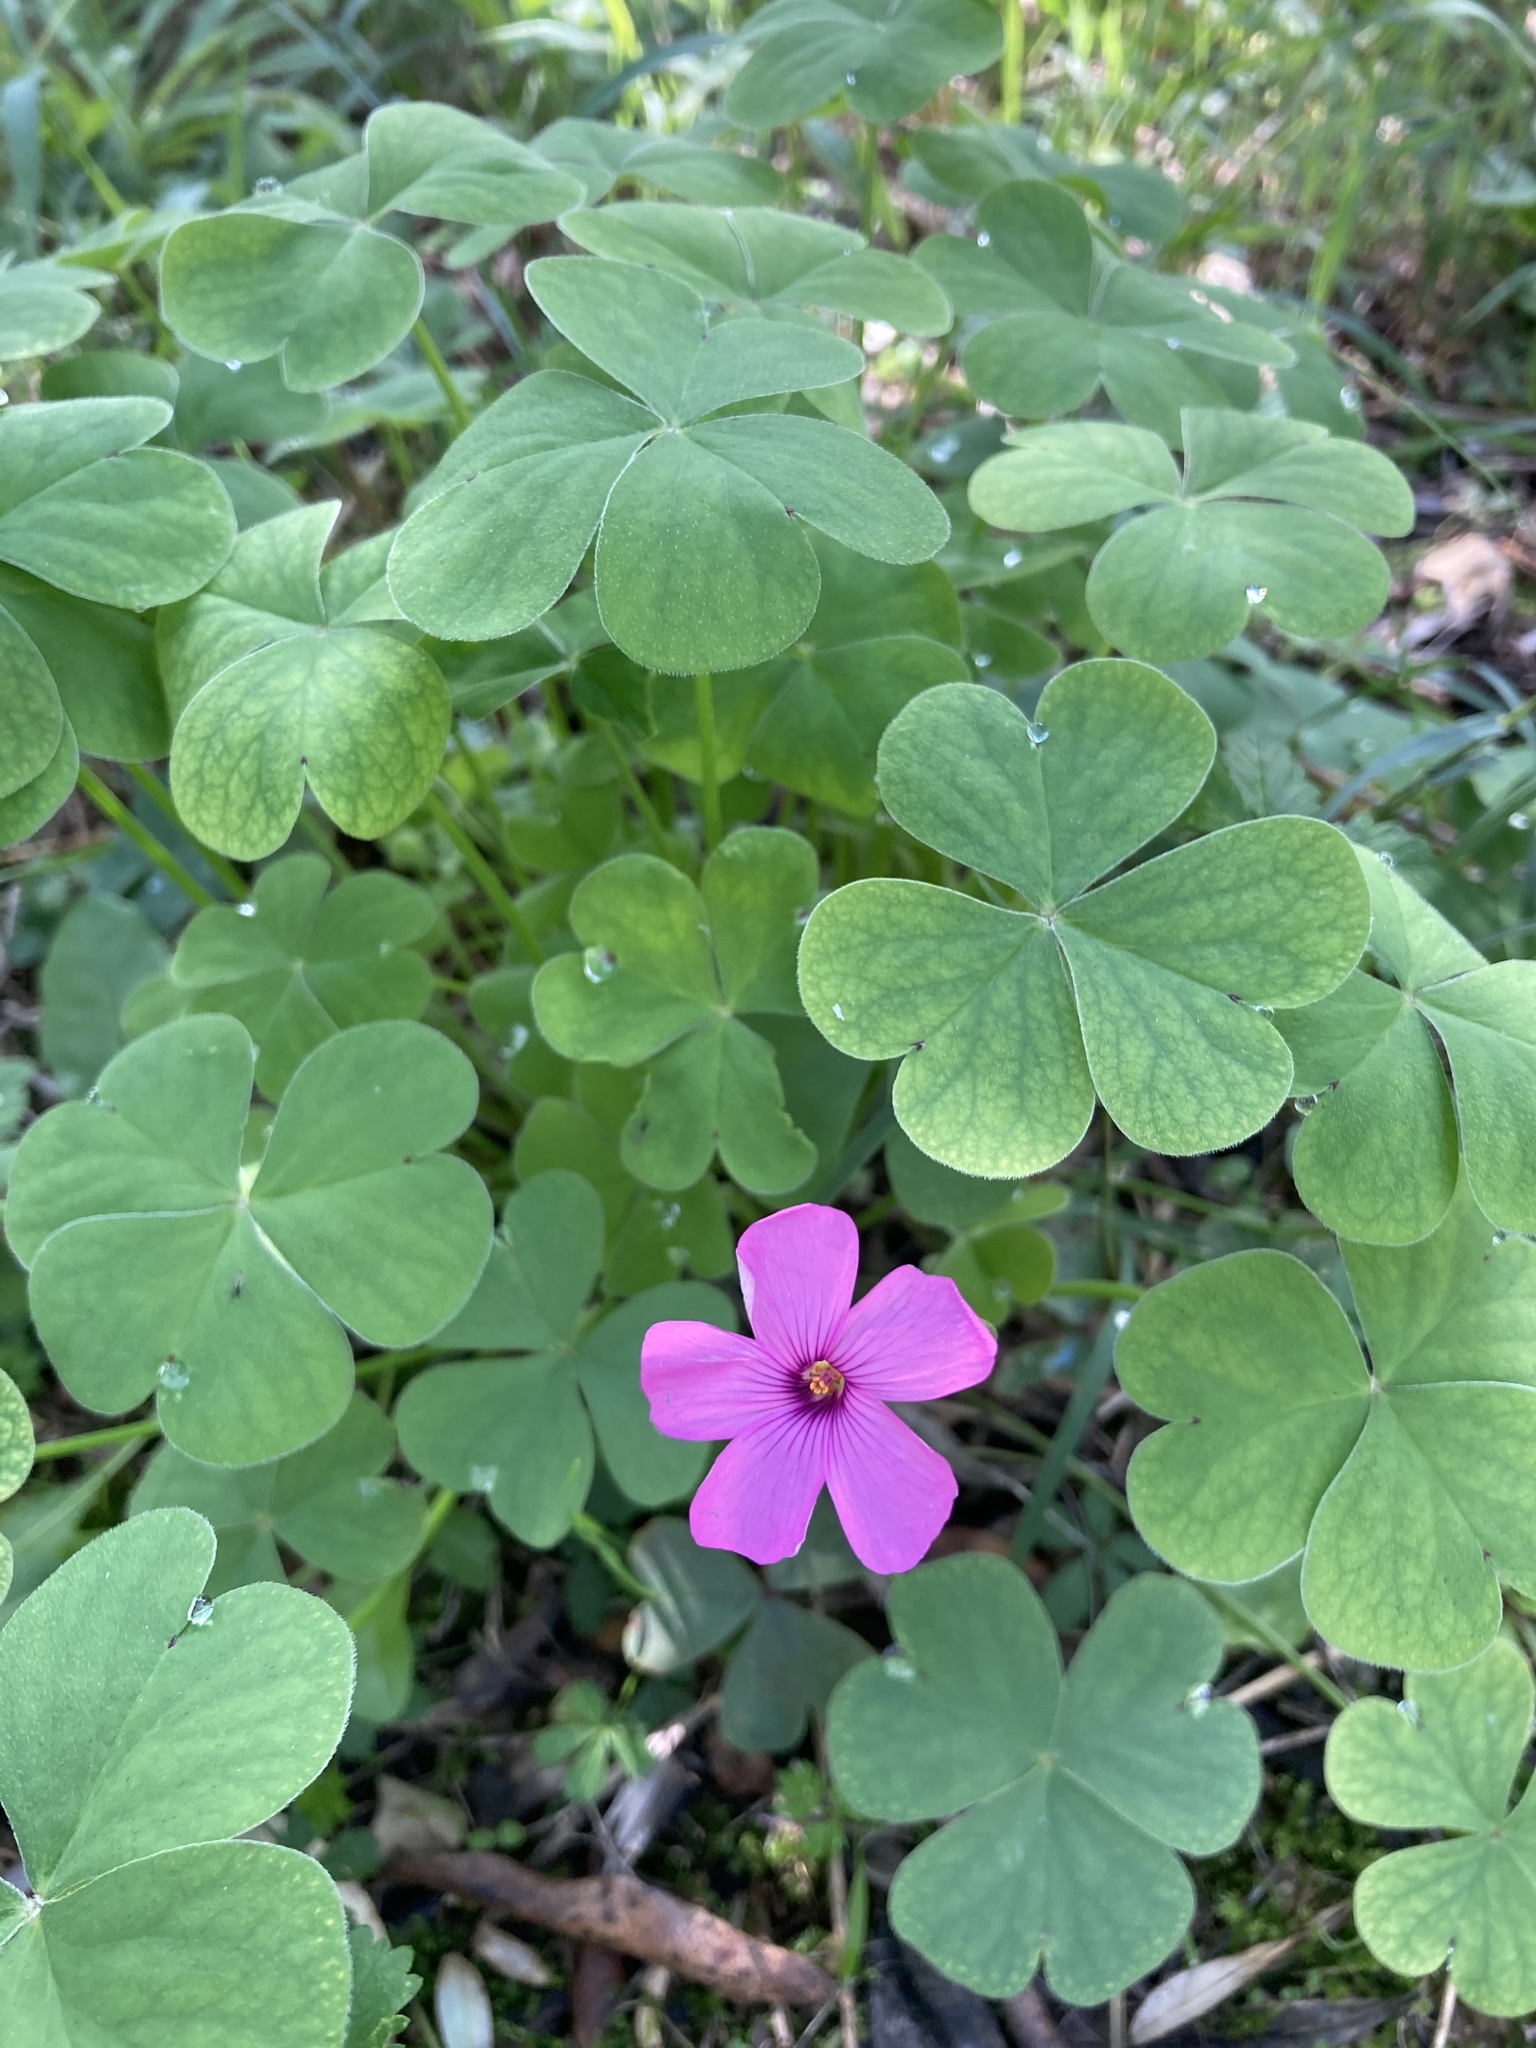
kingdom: Plantae
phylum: Tracheophyta
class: Magnoliopsida
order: Oxalidales
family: Oxalidaceae
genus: Oxalis
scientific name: Oxalis articulata
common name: Pink-sorrel
